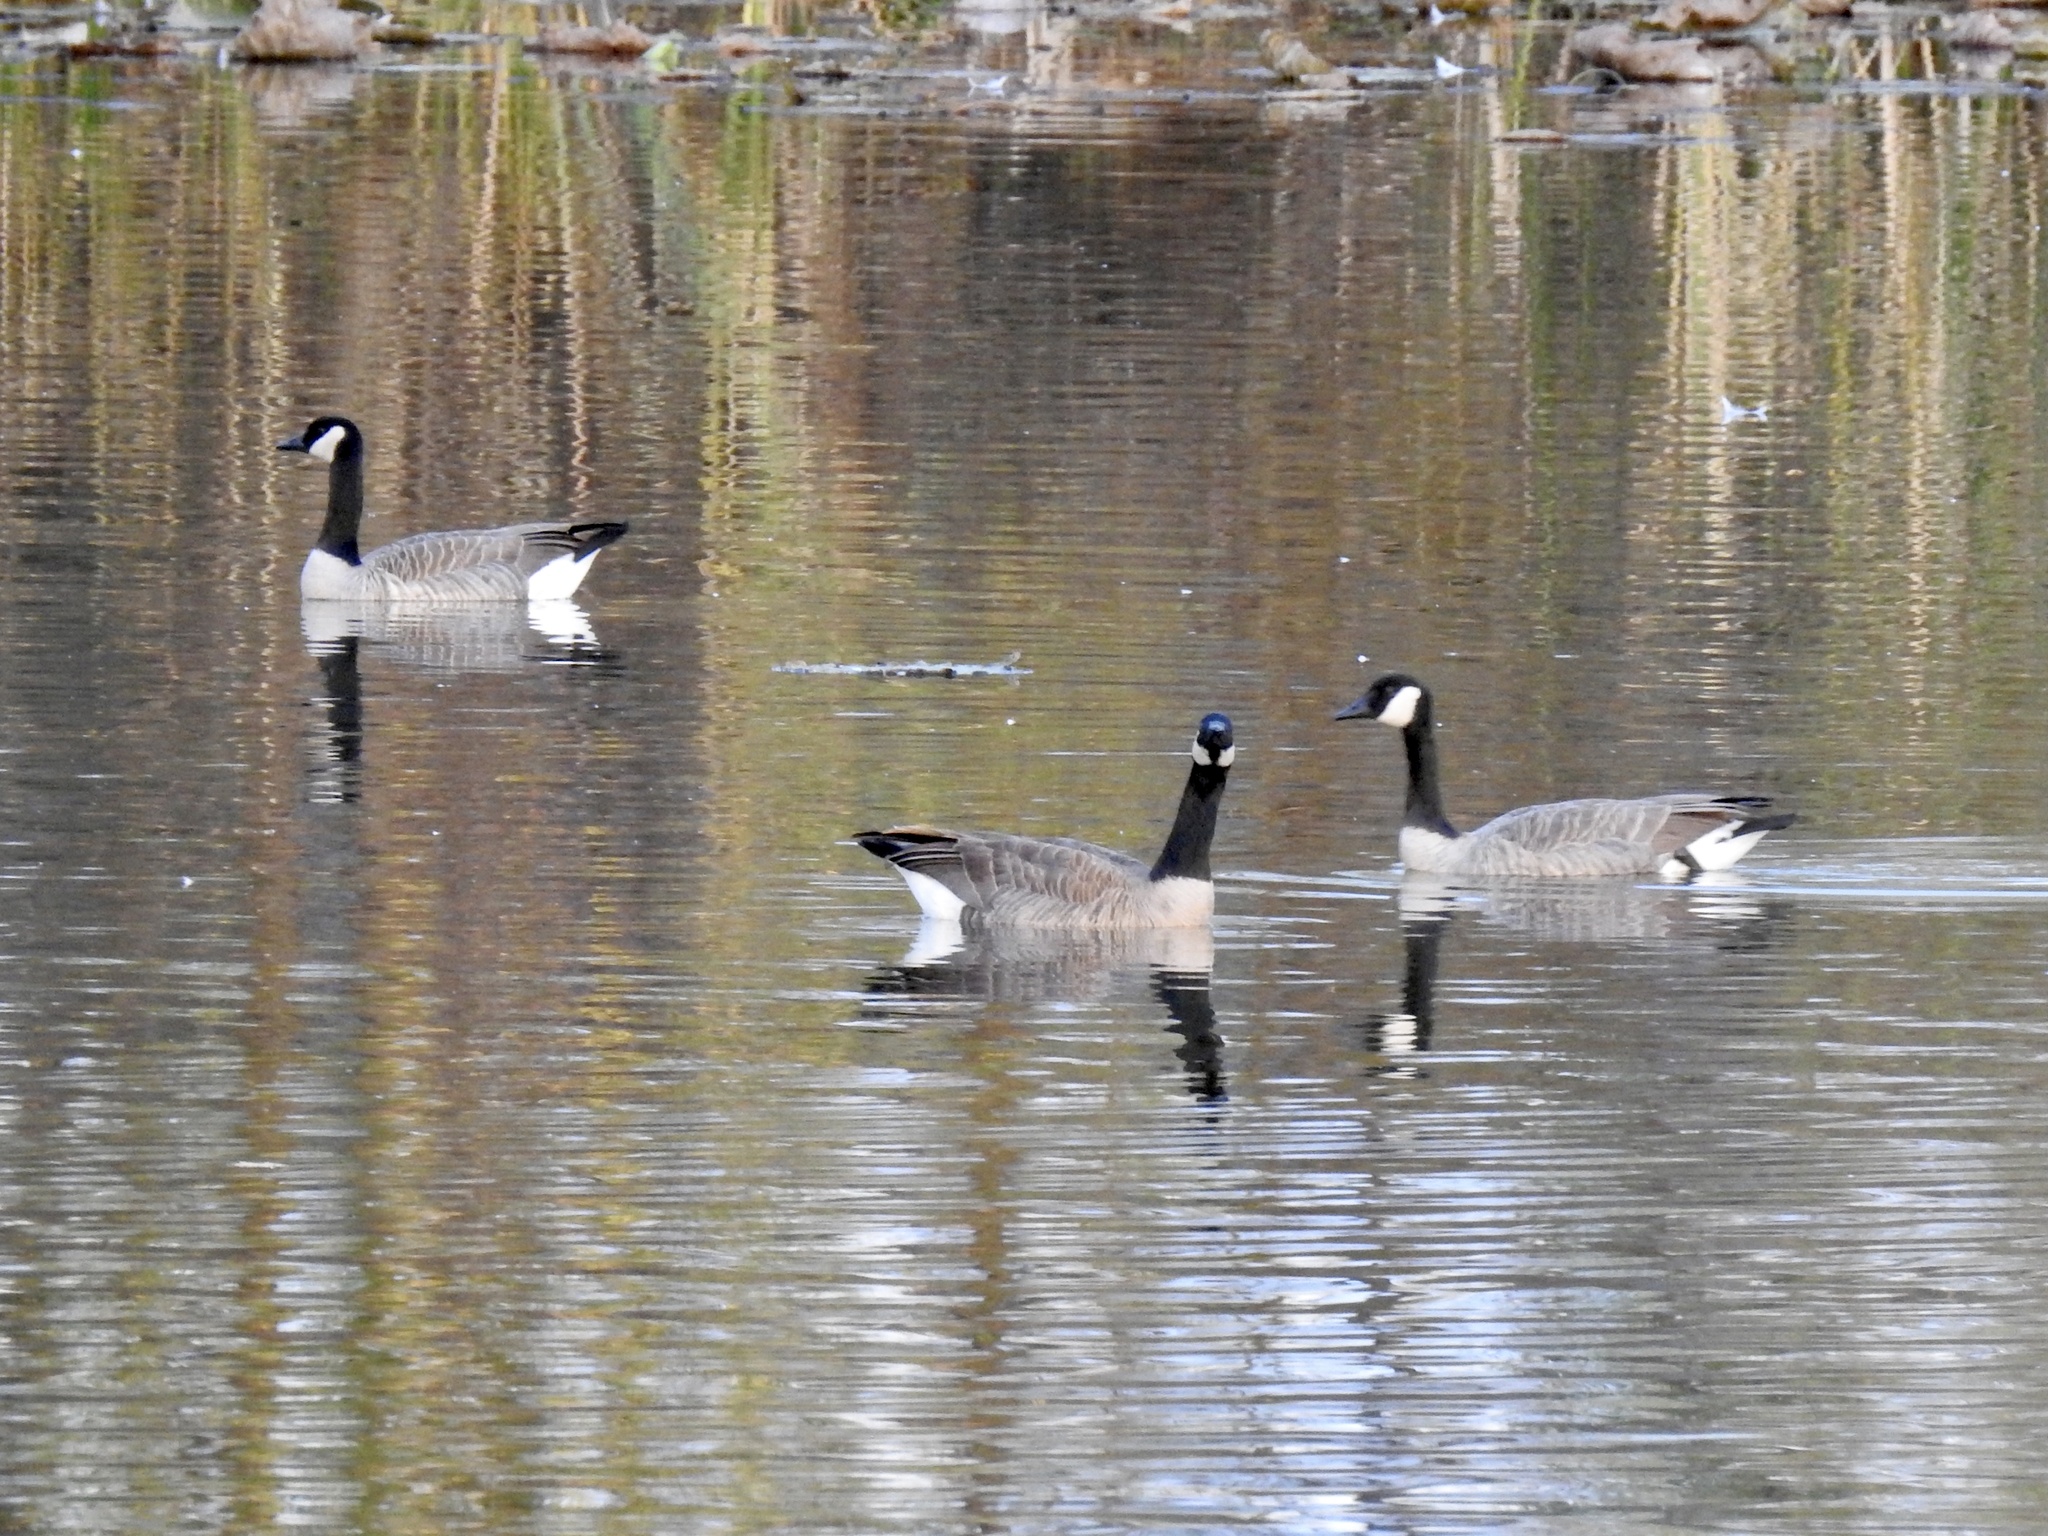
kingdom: Animalia
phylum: Chordata
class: Aves
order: Anseriformes
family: Anatidae
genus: Branta
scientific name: Branta canadensis
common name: Canada goose
